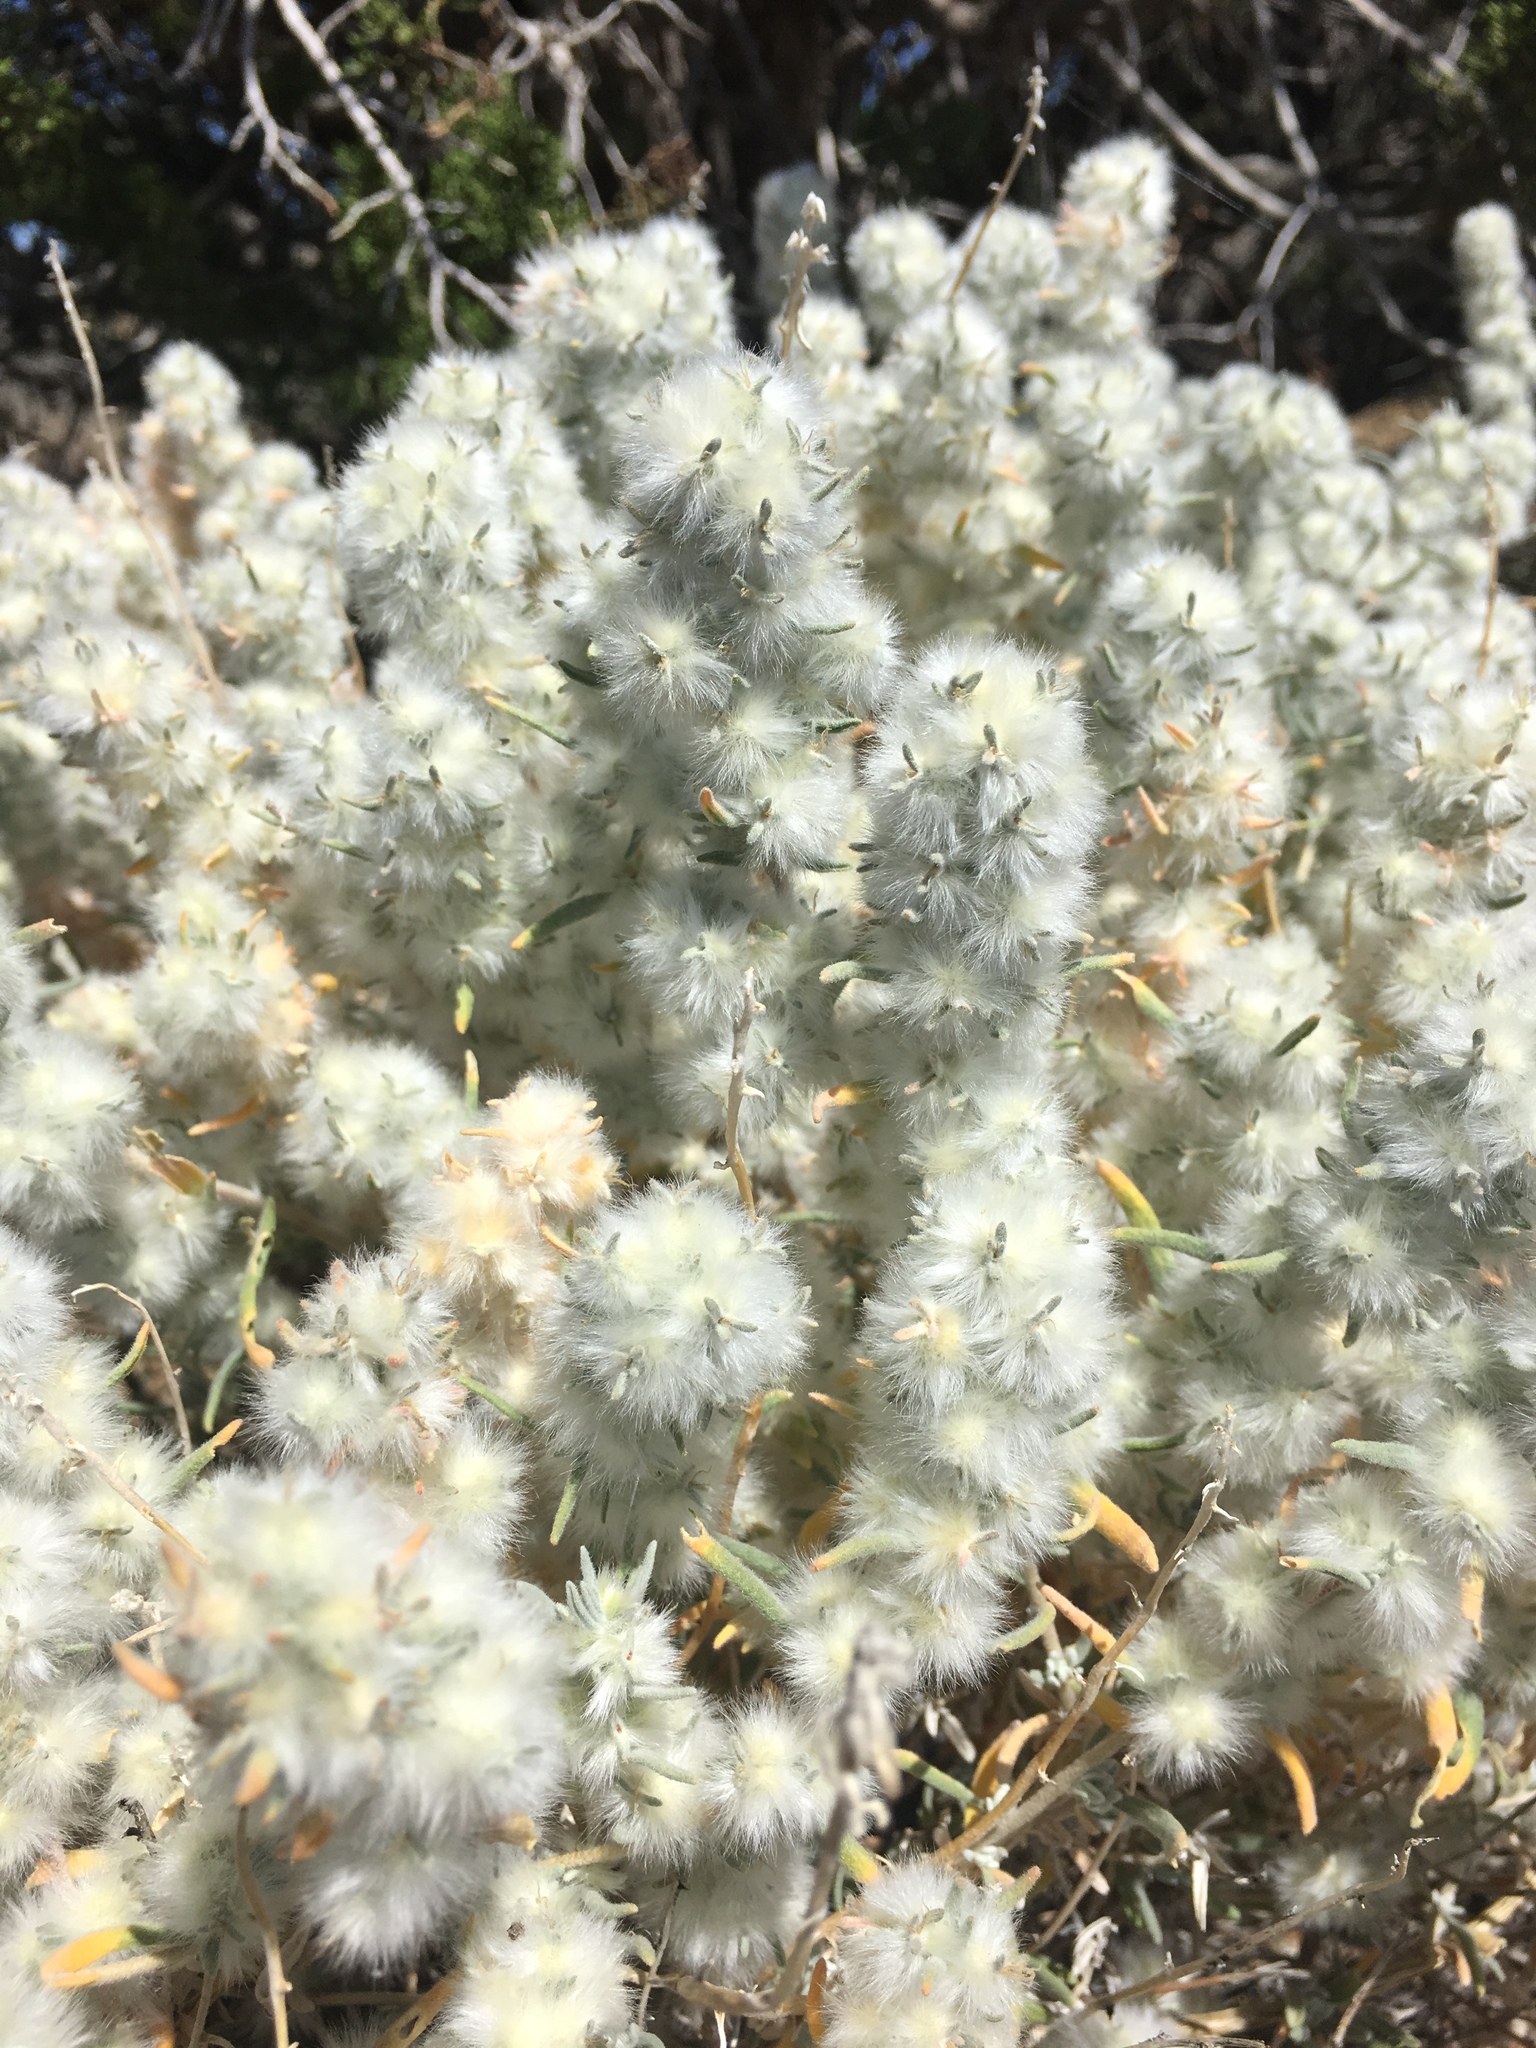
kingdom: Plantae
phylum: Tracheophyta
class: Magnoliopsida
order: Caryophyllales
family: Amaranthaceae
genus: Krascheninnikovia
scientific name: Krascheninnikovia lanata
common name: Winterfat
